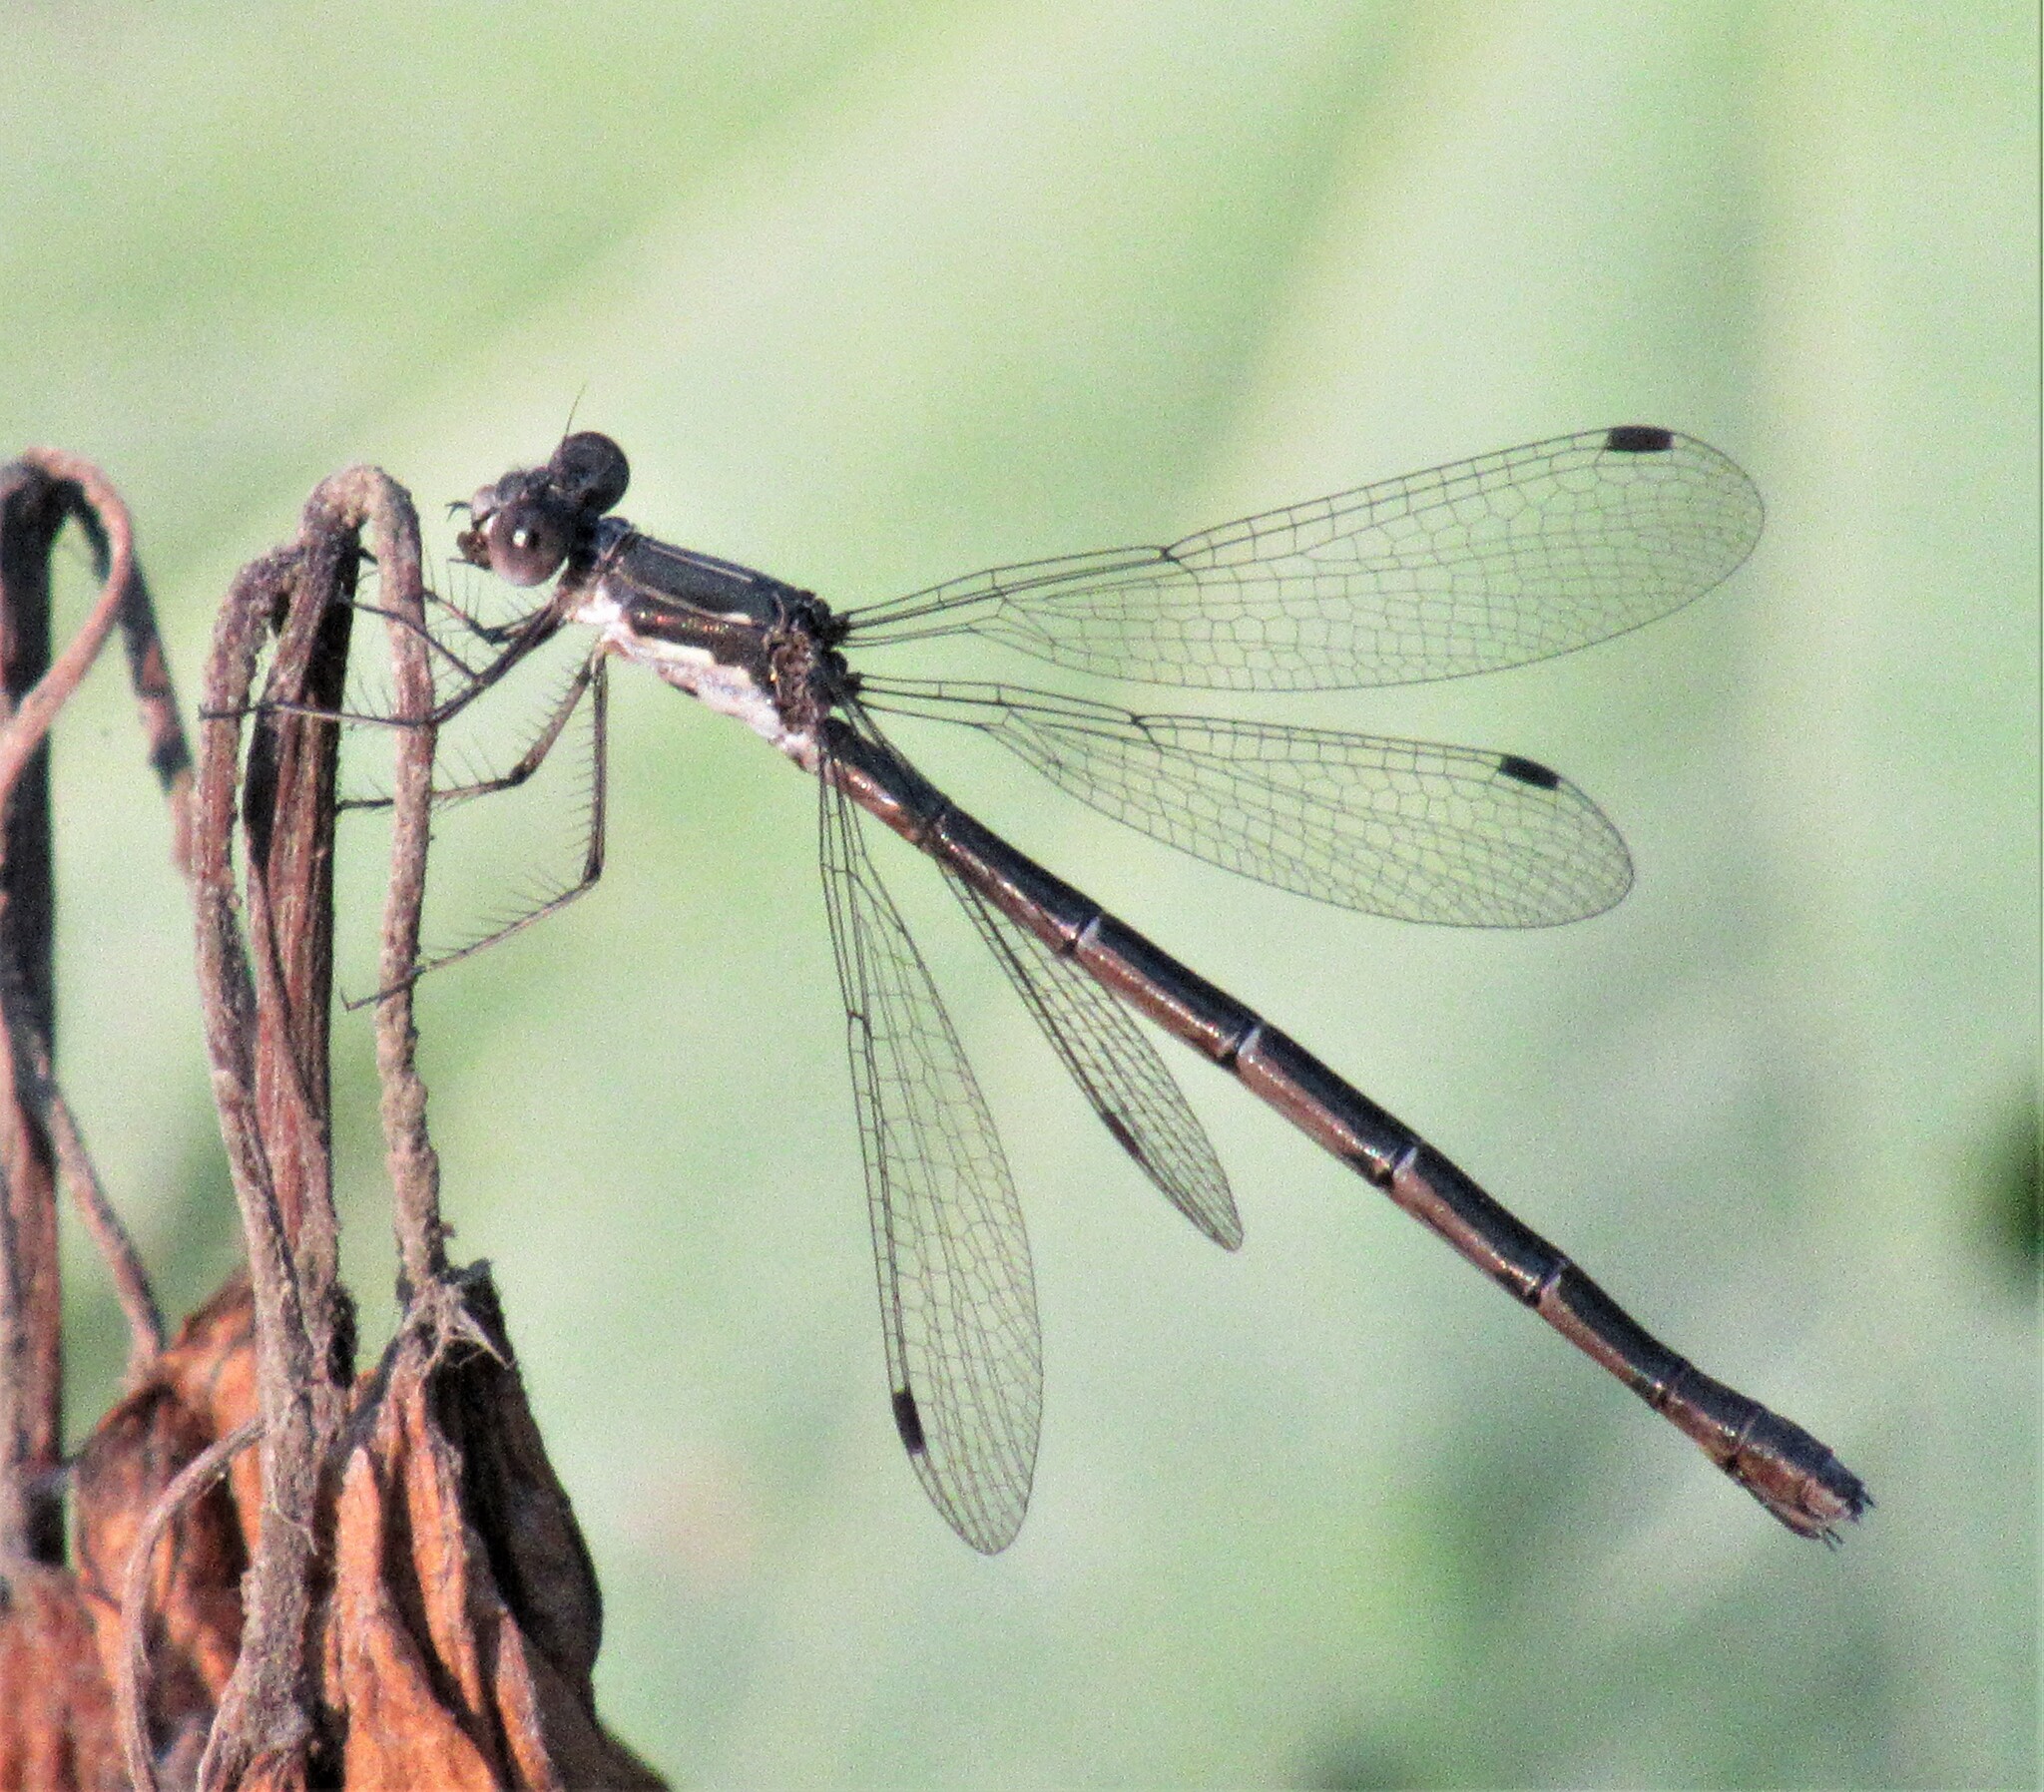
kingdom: Animalia
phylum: Arthropoda
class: Insecta
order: Odonata
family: Lestidae
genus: Lestes
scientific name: Lestes congener
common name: Spotted spreadwing
